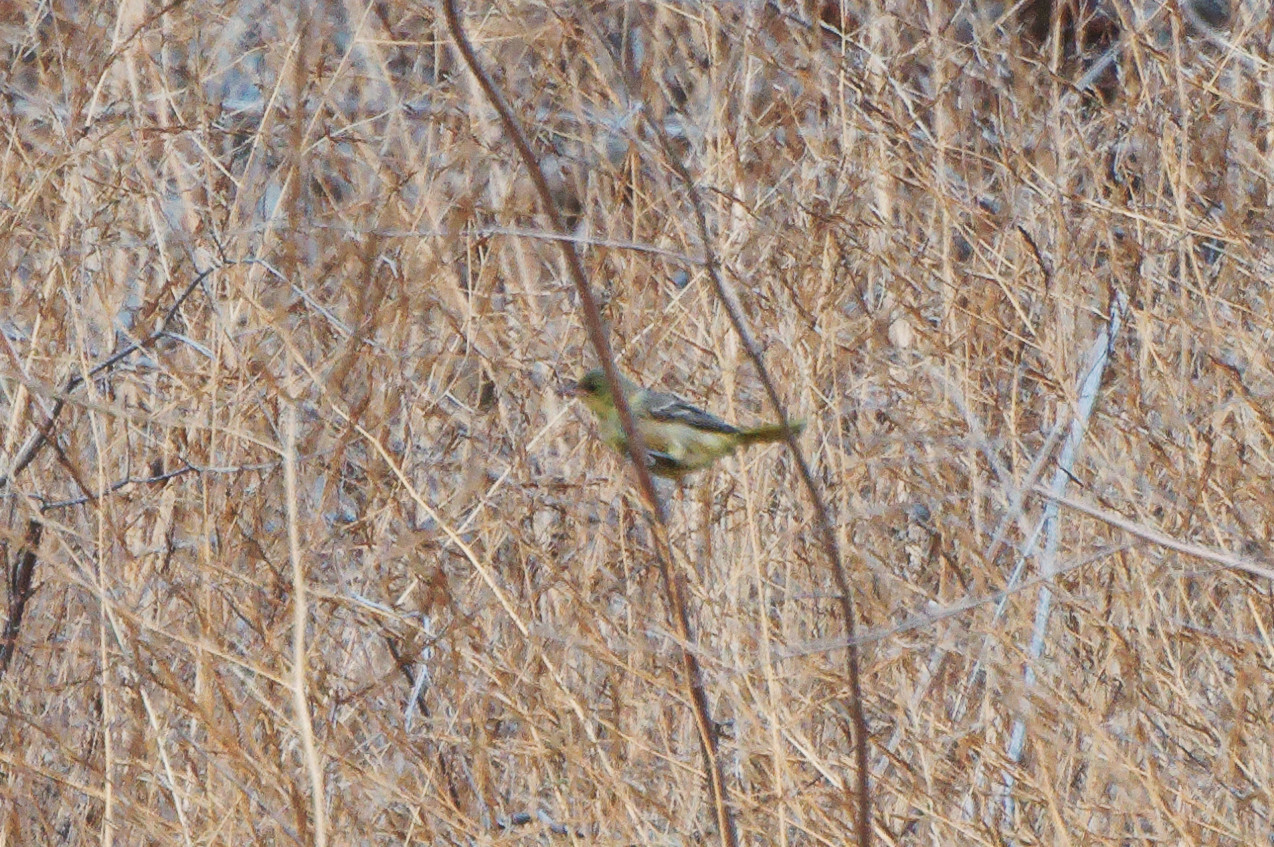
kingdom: Animalia
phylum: Chordata
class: Aves
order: Passeriformes
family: Icteridae
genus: Icterus
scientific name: Icterus cucullatus
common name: Hooded oriole
